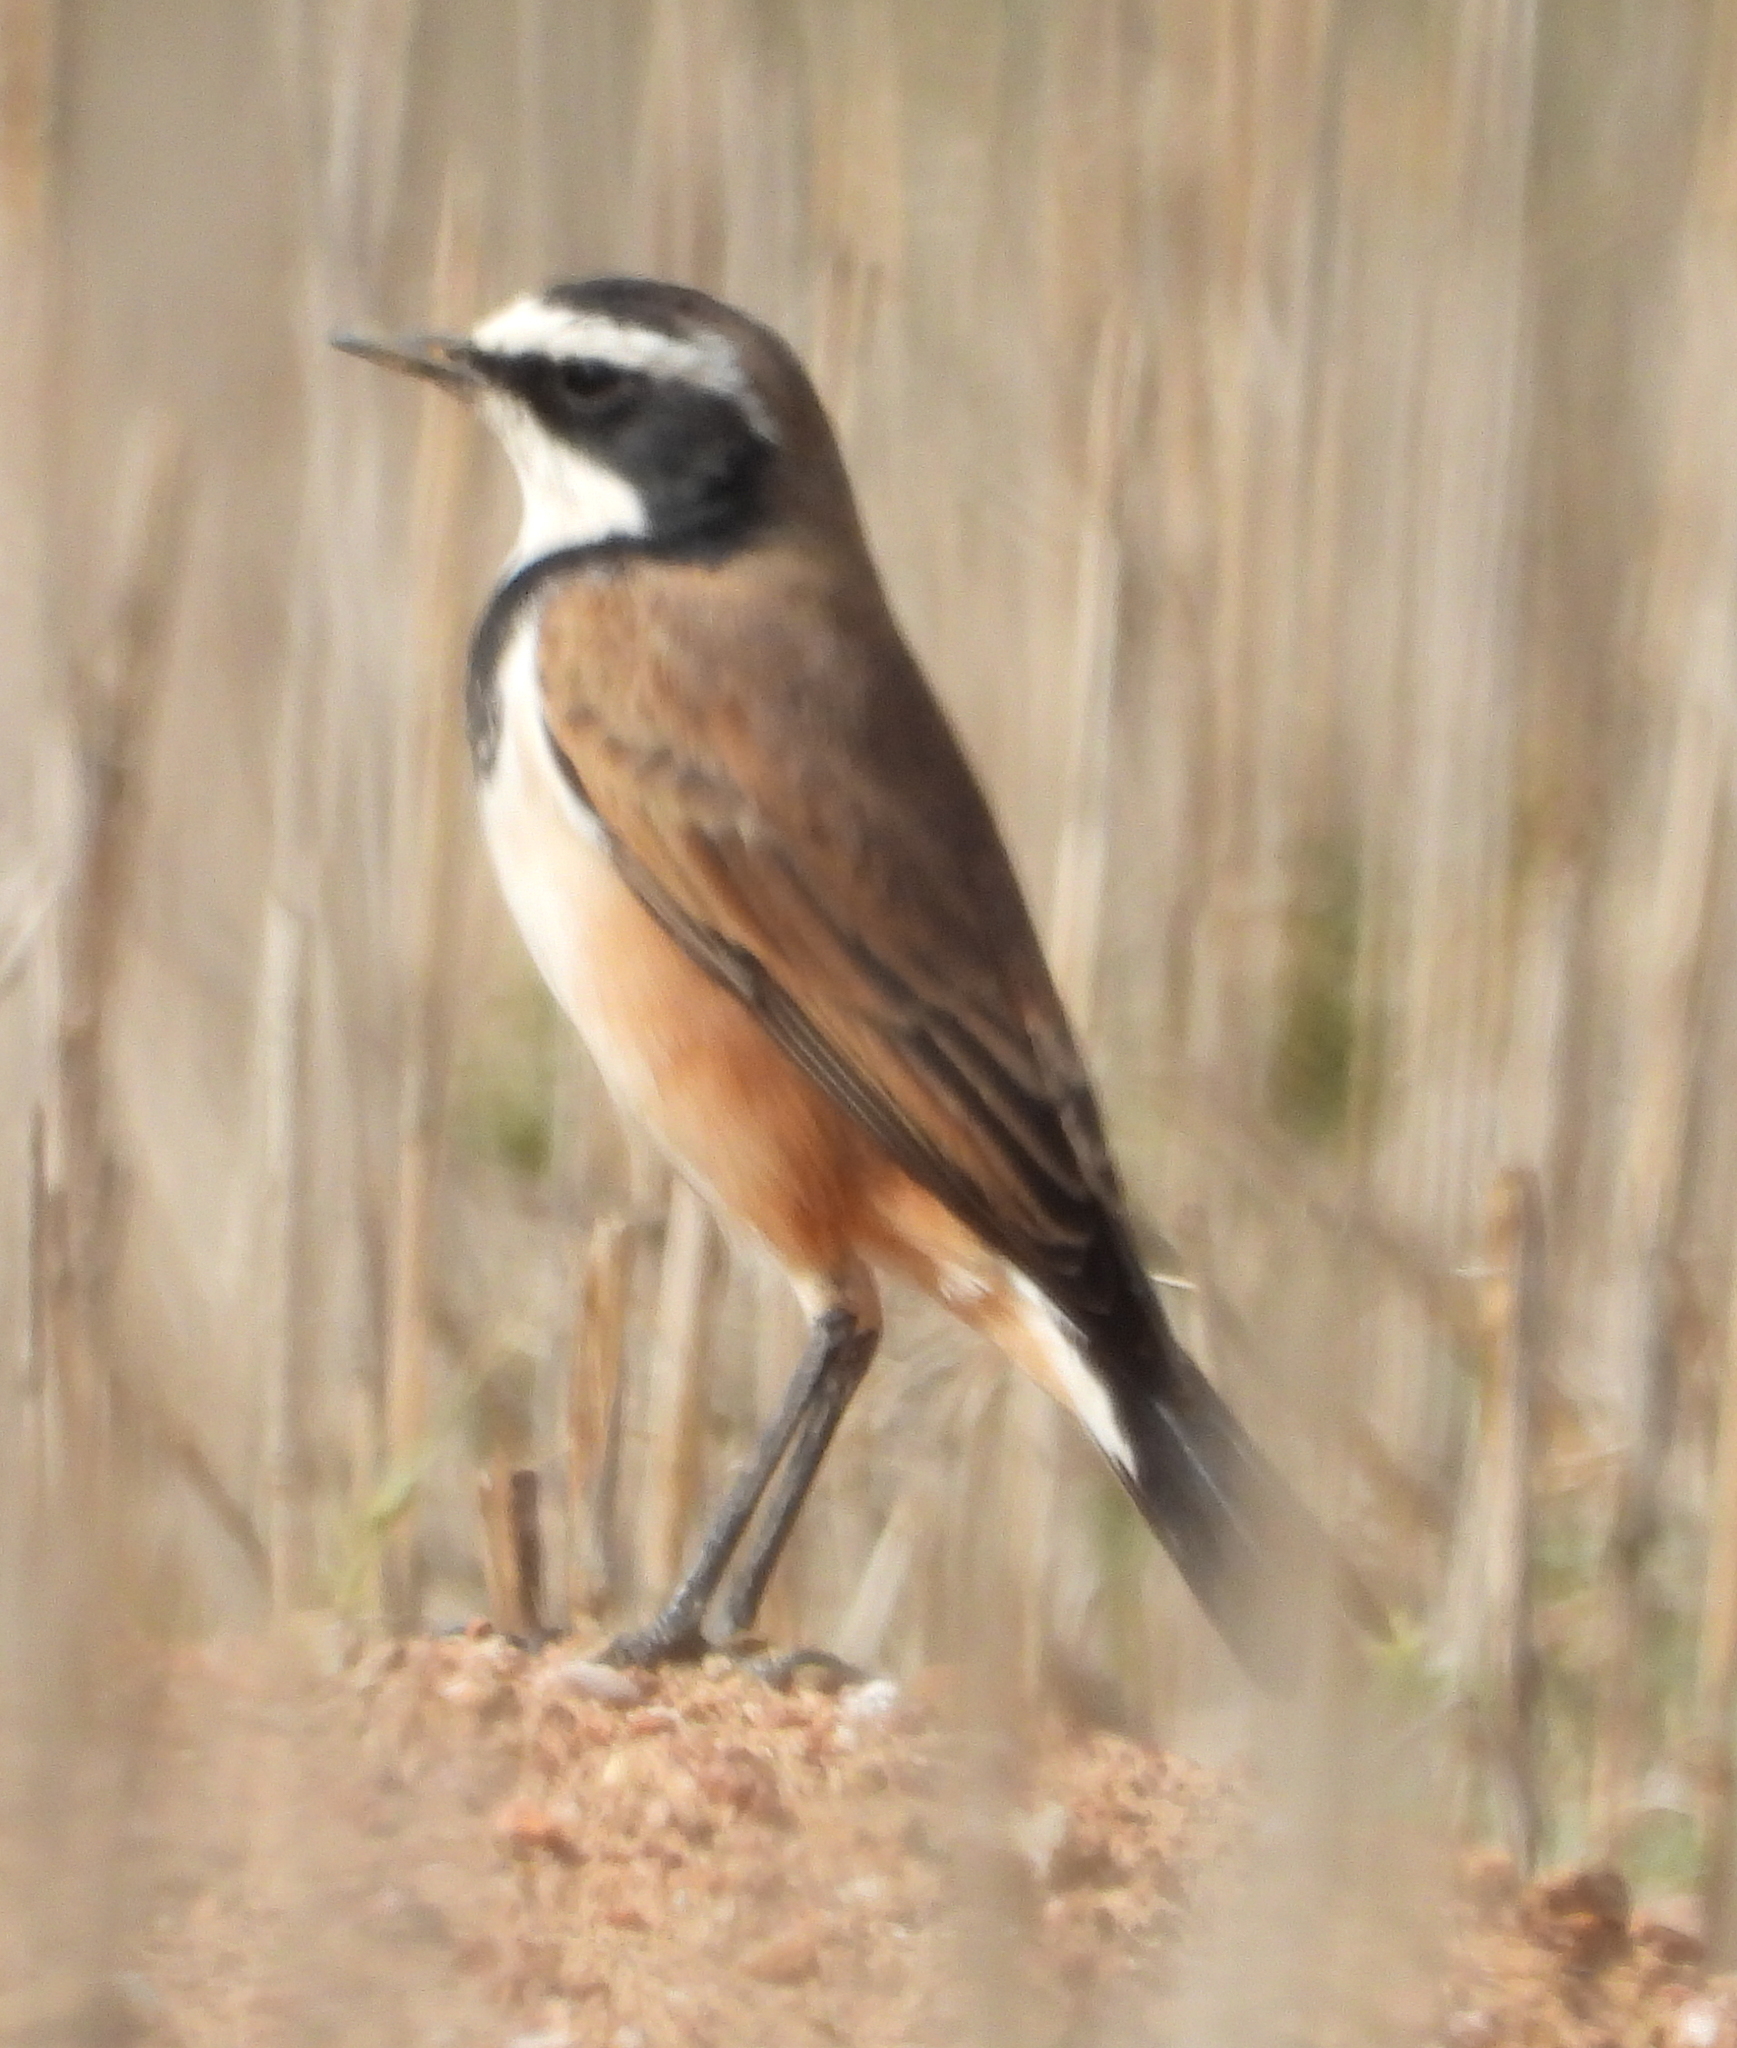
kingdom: Animalia
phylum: Chordata
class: Aves
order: Passeriformes
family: Muscicapidae
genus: Oenanthe
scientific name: Oenanthe pileata
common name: Capped wheatear
